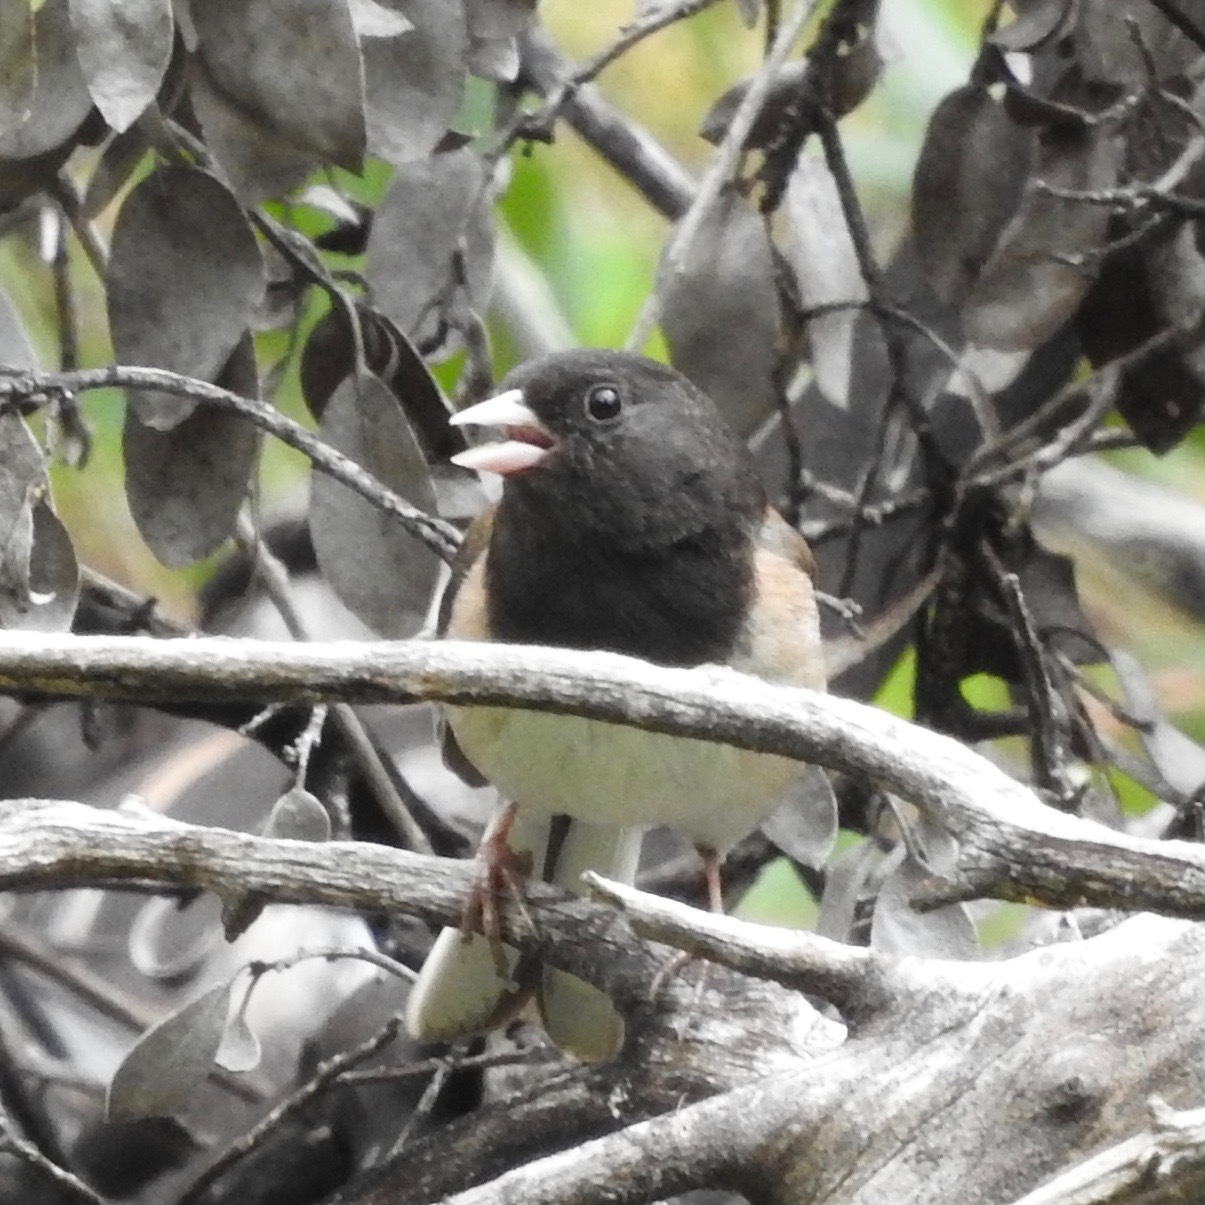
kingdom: Animalia
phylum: Chordata
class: Aves
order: Passeriformes
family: Passerellidae
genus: Junco
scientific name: Junco hyemalis
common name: Dark-eyed junco
